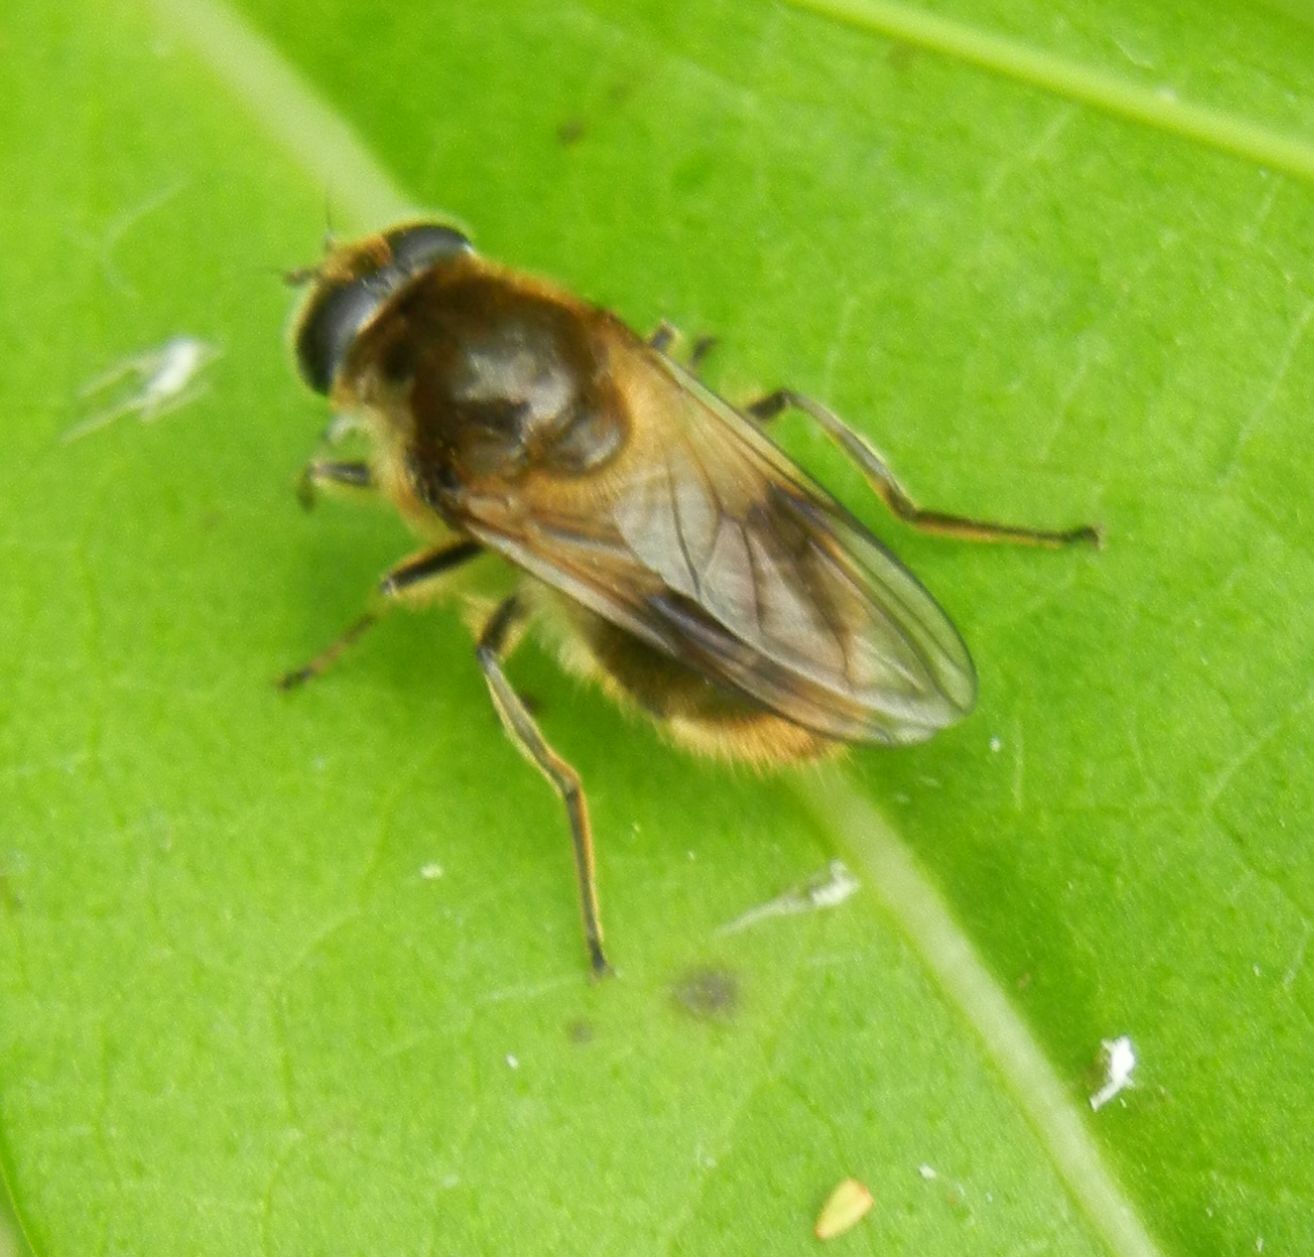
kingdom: Animalia
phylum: Arthropoda
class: Insecta
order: Diptera
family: Syrphidae
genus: Cheilosia
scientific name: Cheilosia illustrata
